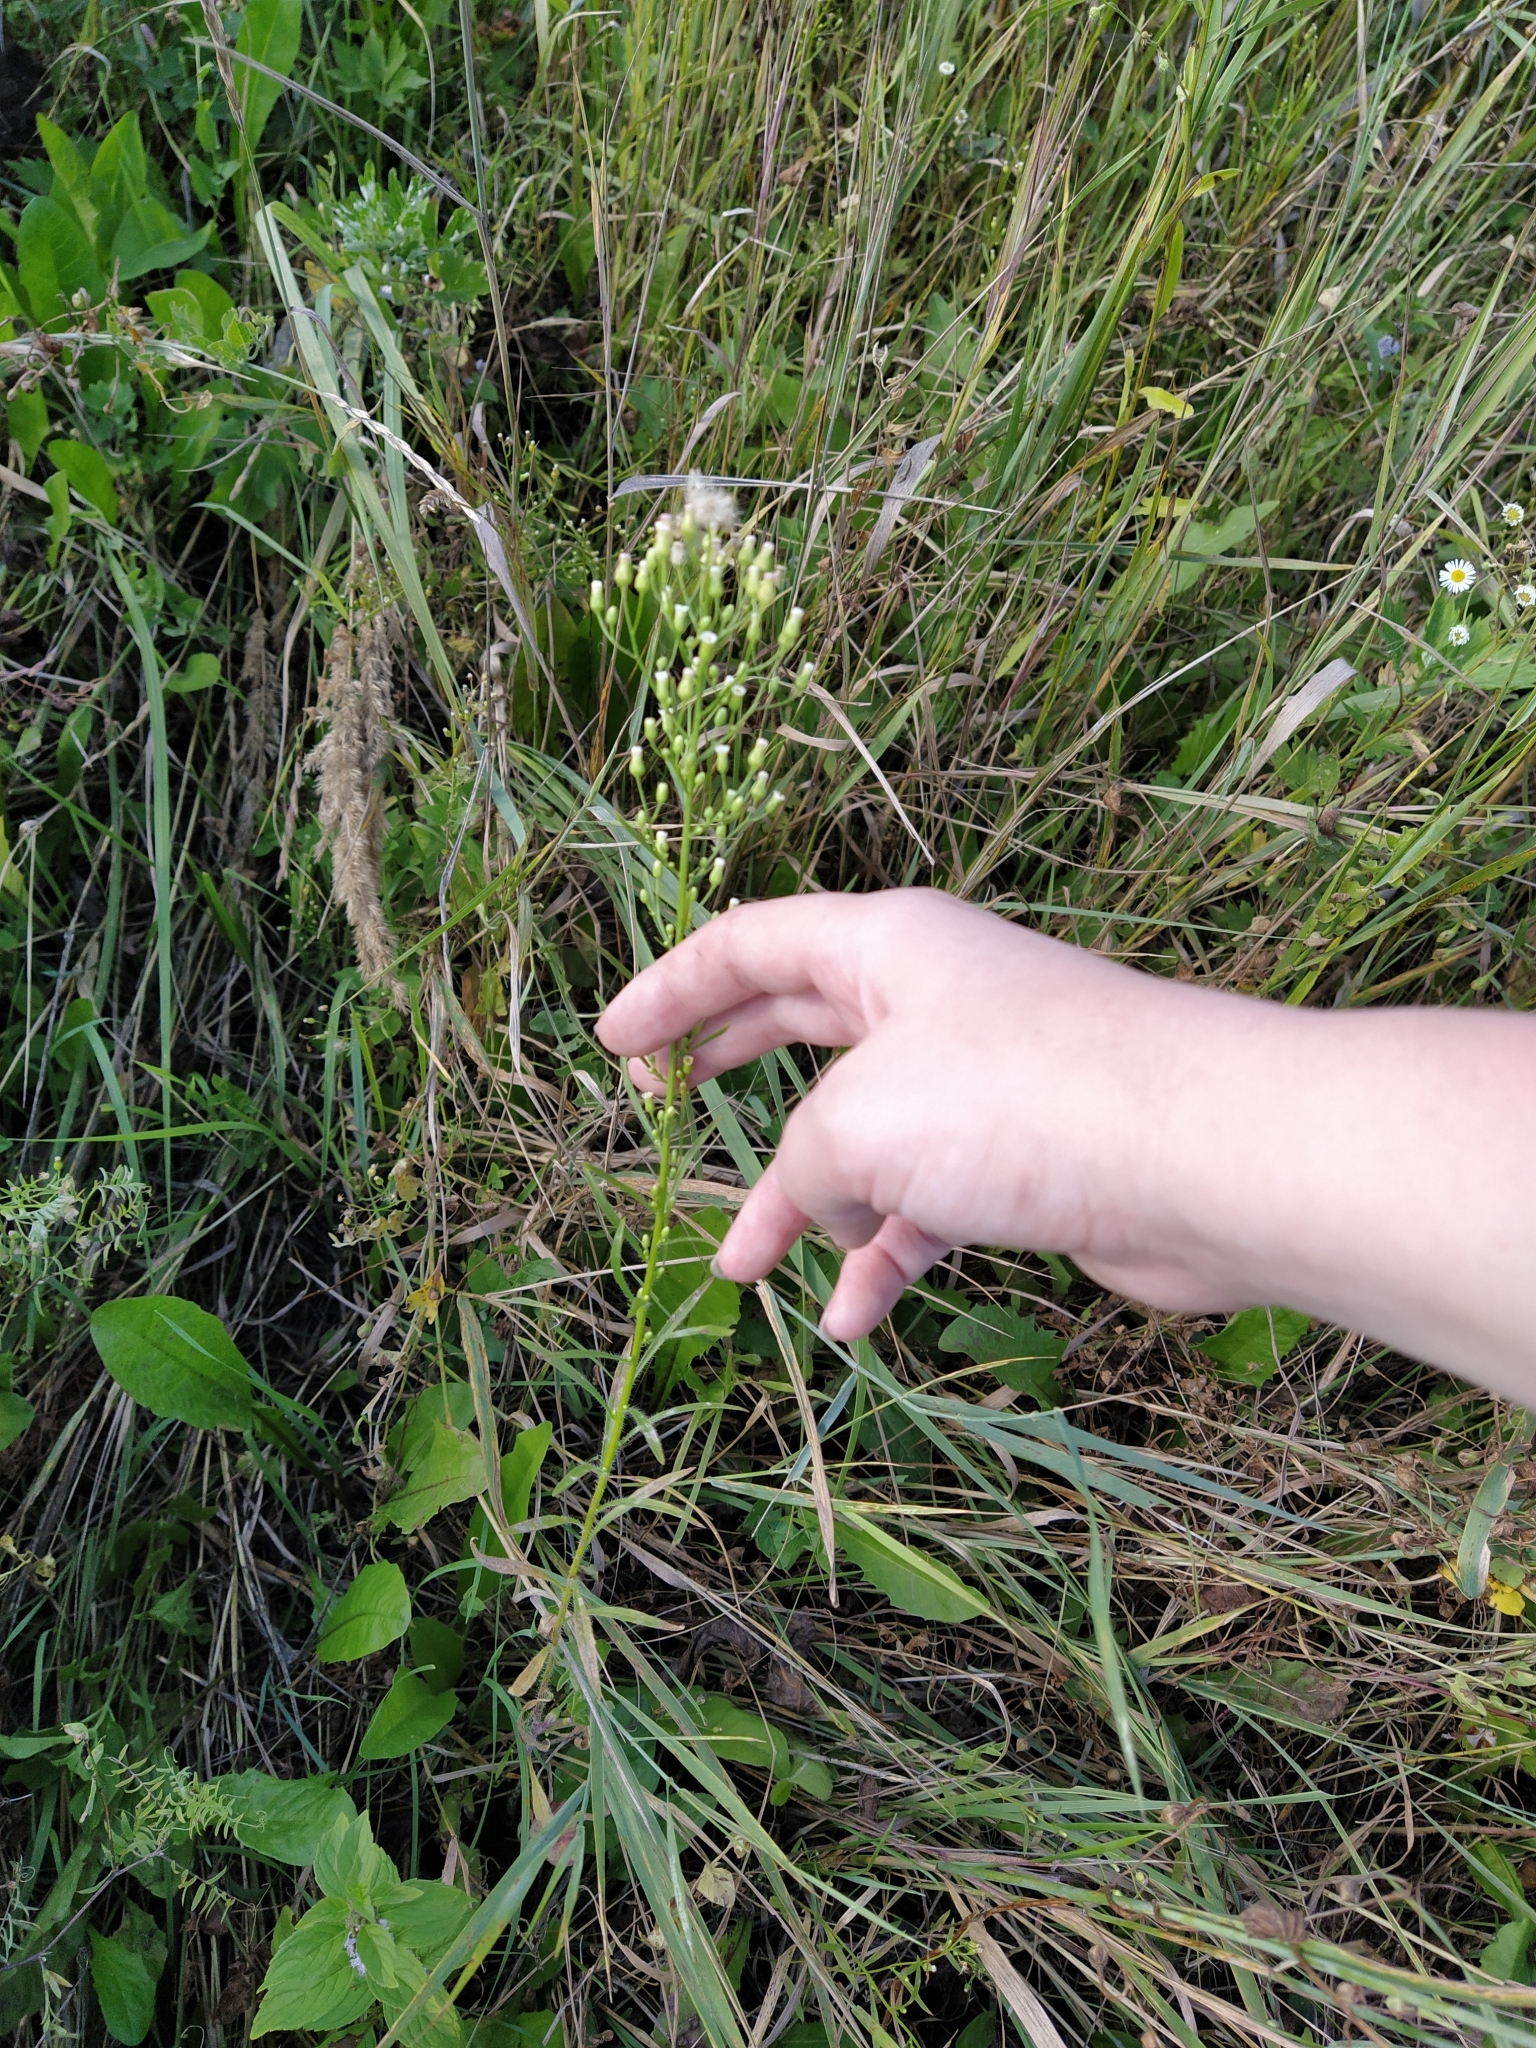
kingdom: Plantae
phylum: Tracheophyta
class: Magnoliopsida
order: Asterales
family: Asteraceae
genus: Erigeron
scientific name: Erigeron canadensis
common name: Canadian fleabane
